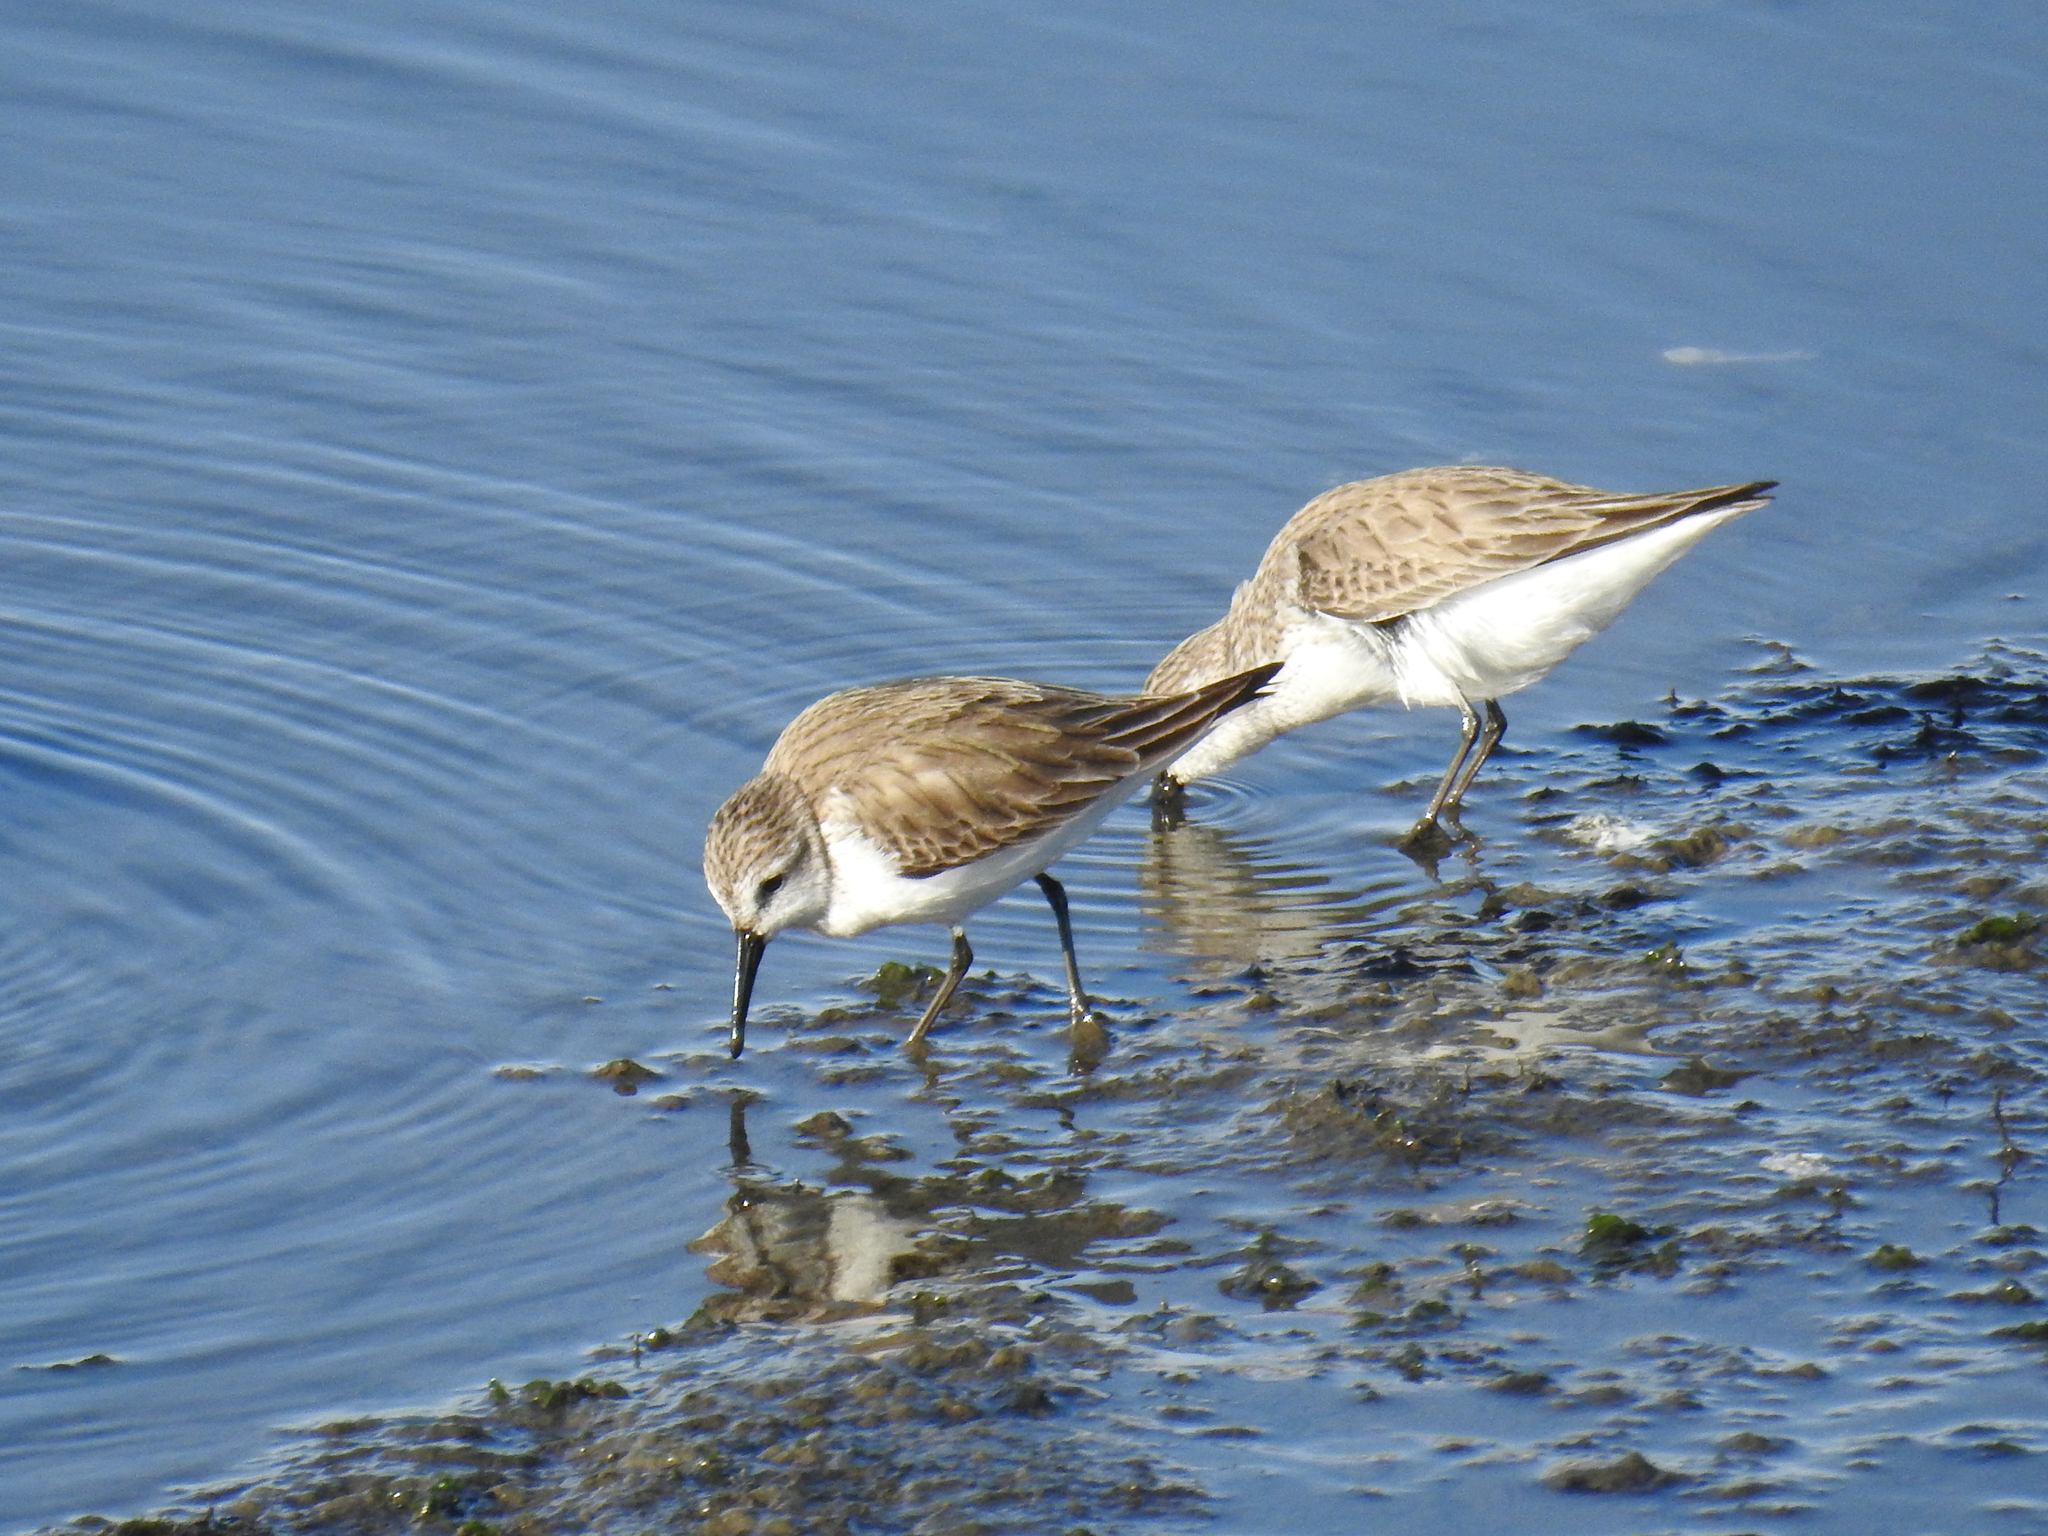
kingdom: Animalia
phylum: Chordata
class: Aves
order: Charadriiformes
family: Scolopacidae
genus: Calidris
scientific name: Calidris mauri
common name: Western sandpiper
